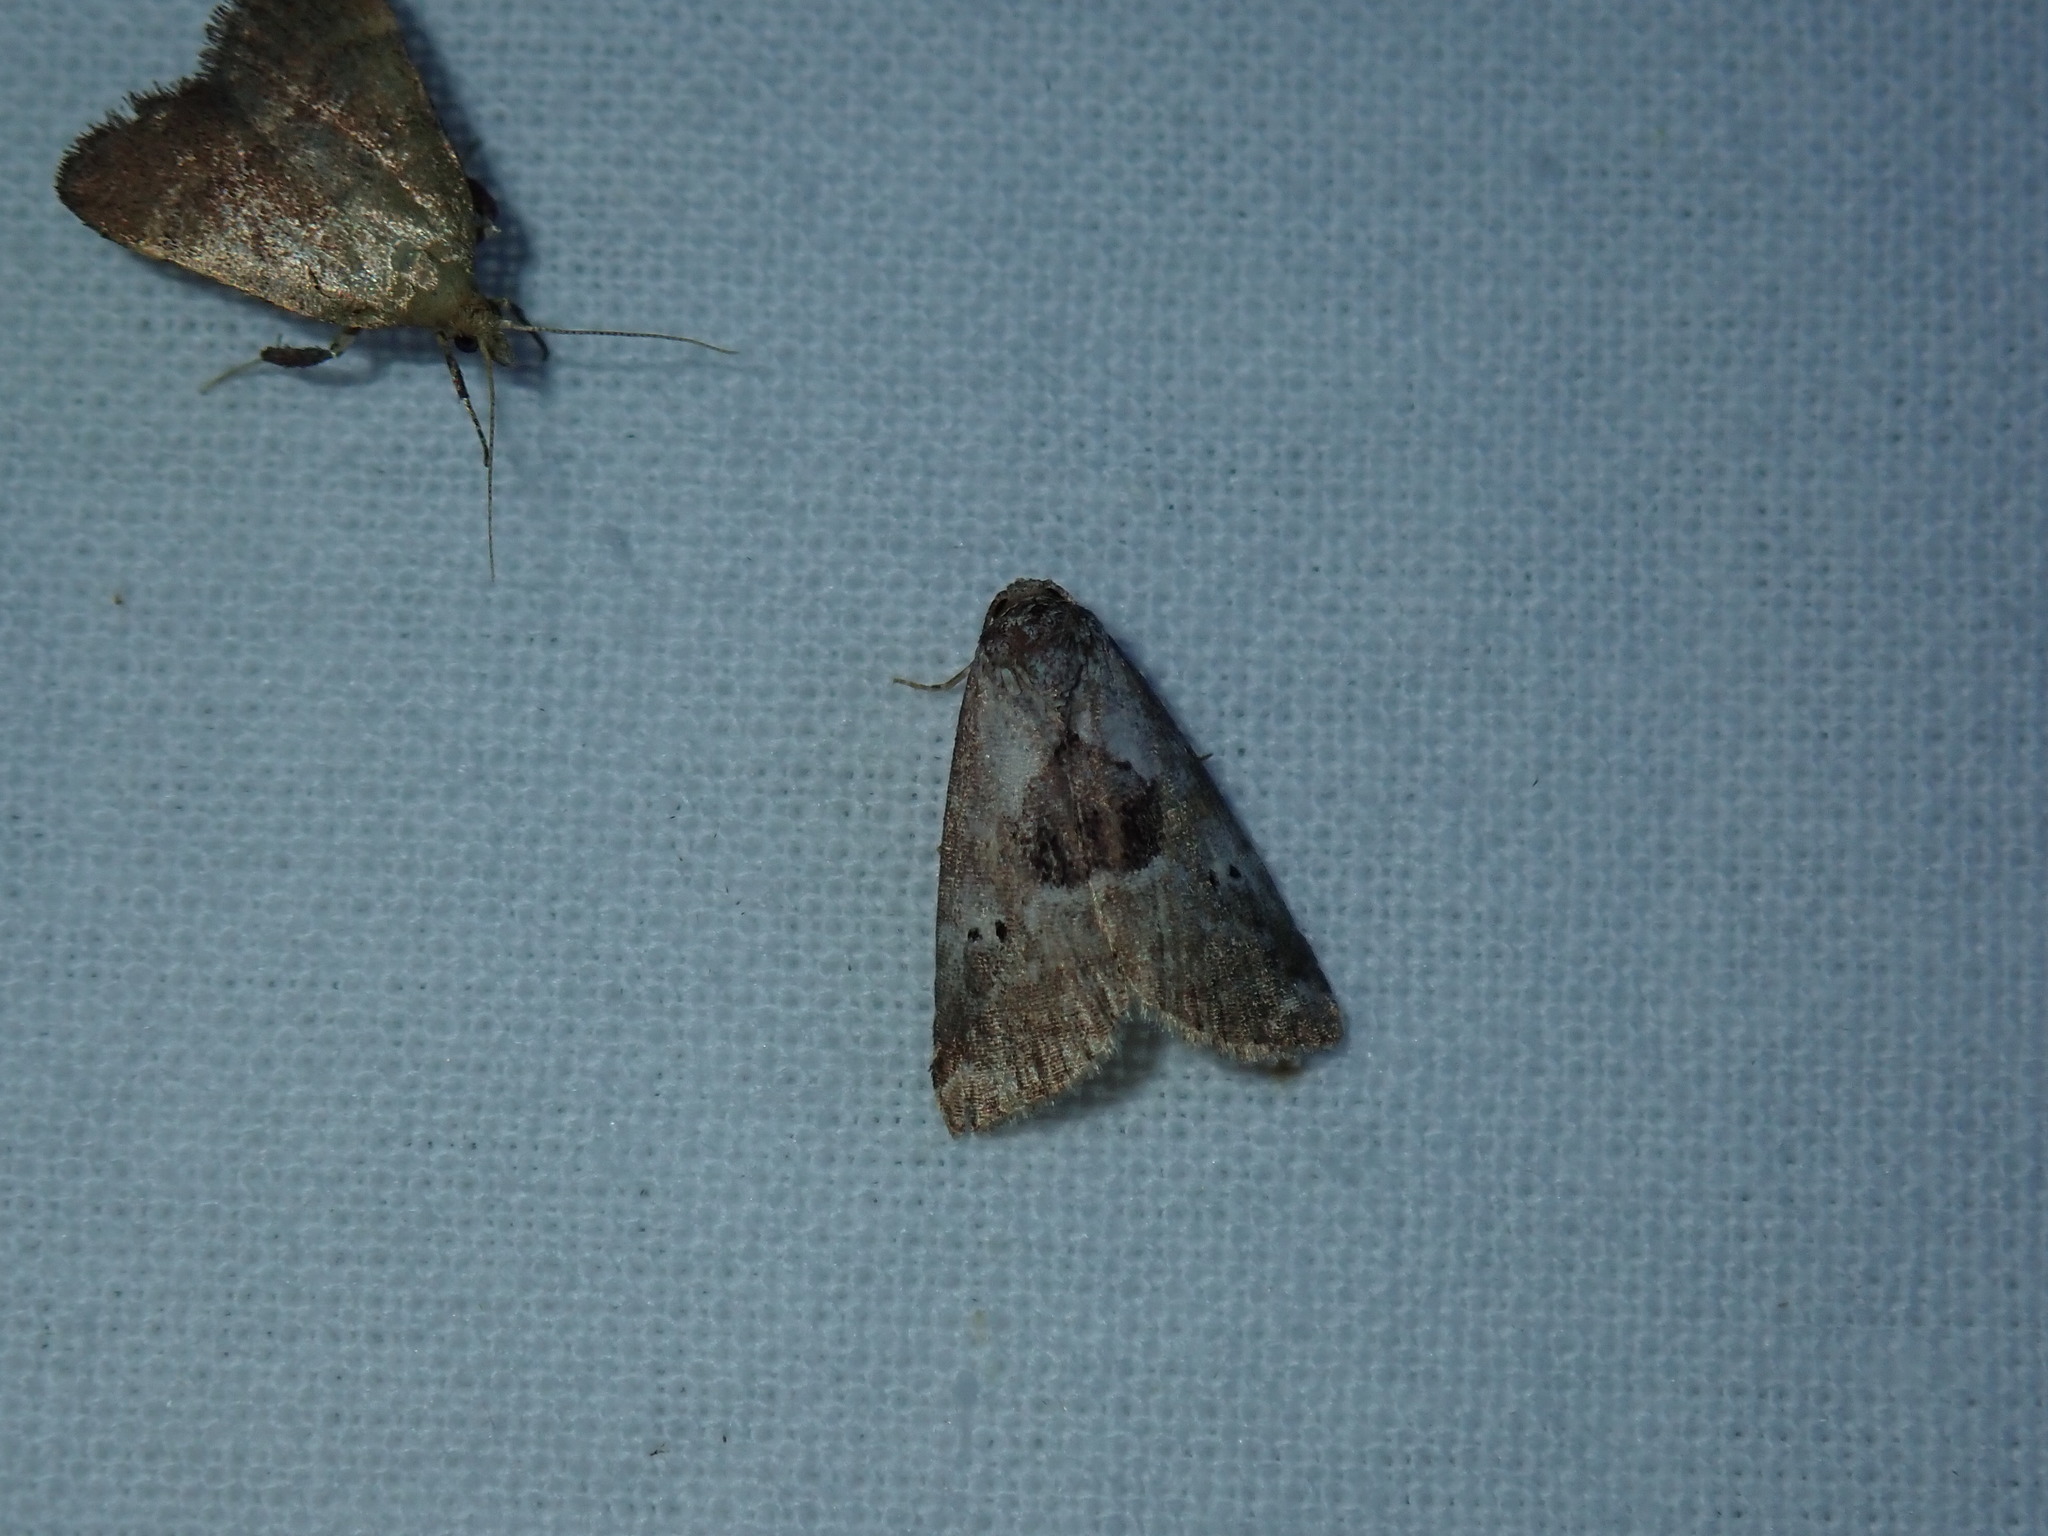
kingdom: Animalia
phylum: Arthropoda
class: Insecta
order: Lepidoptera
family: Erebidae
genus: Hyperstrotia
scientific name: Hyperstrotia secta
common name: Black-patched graylet
